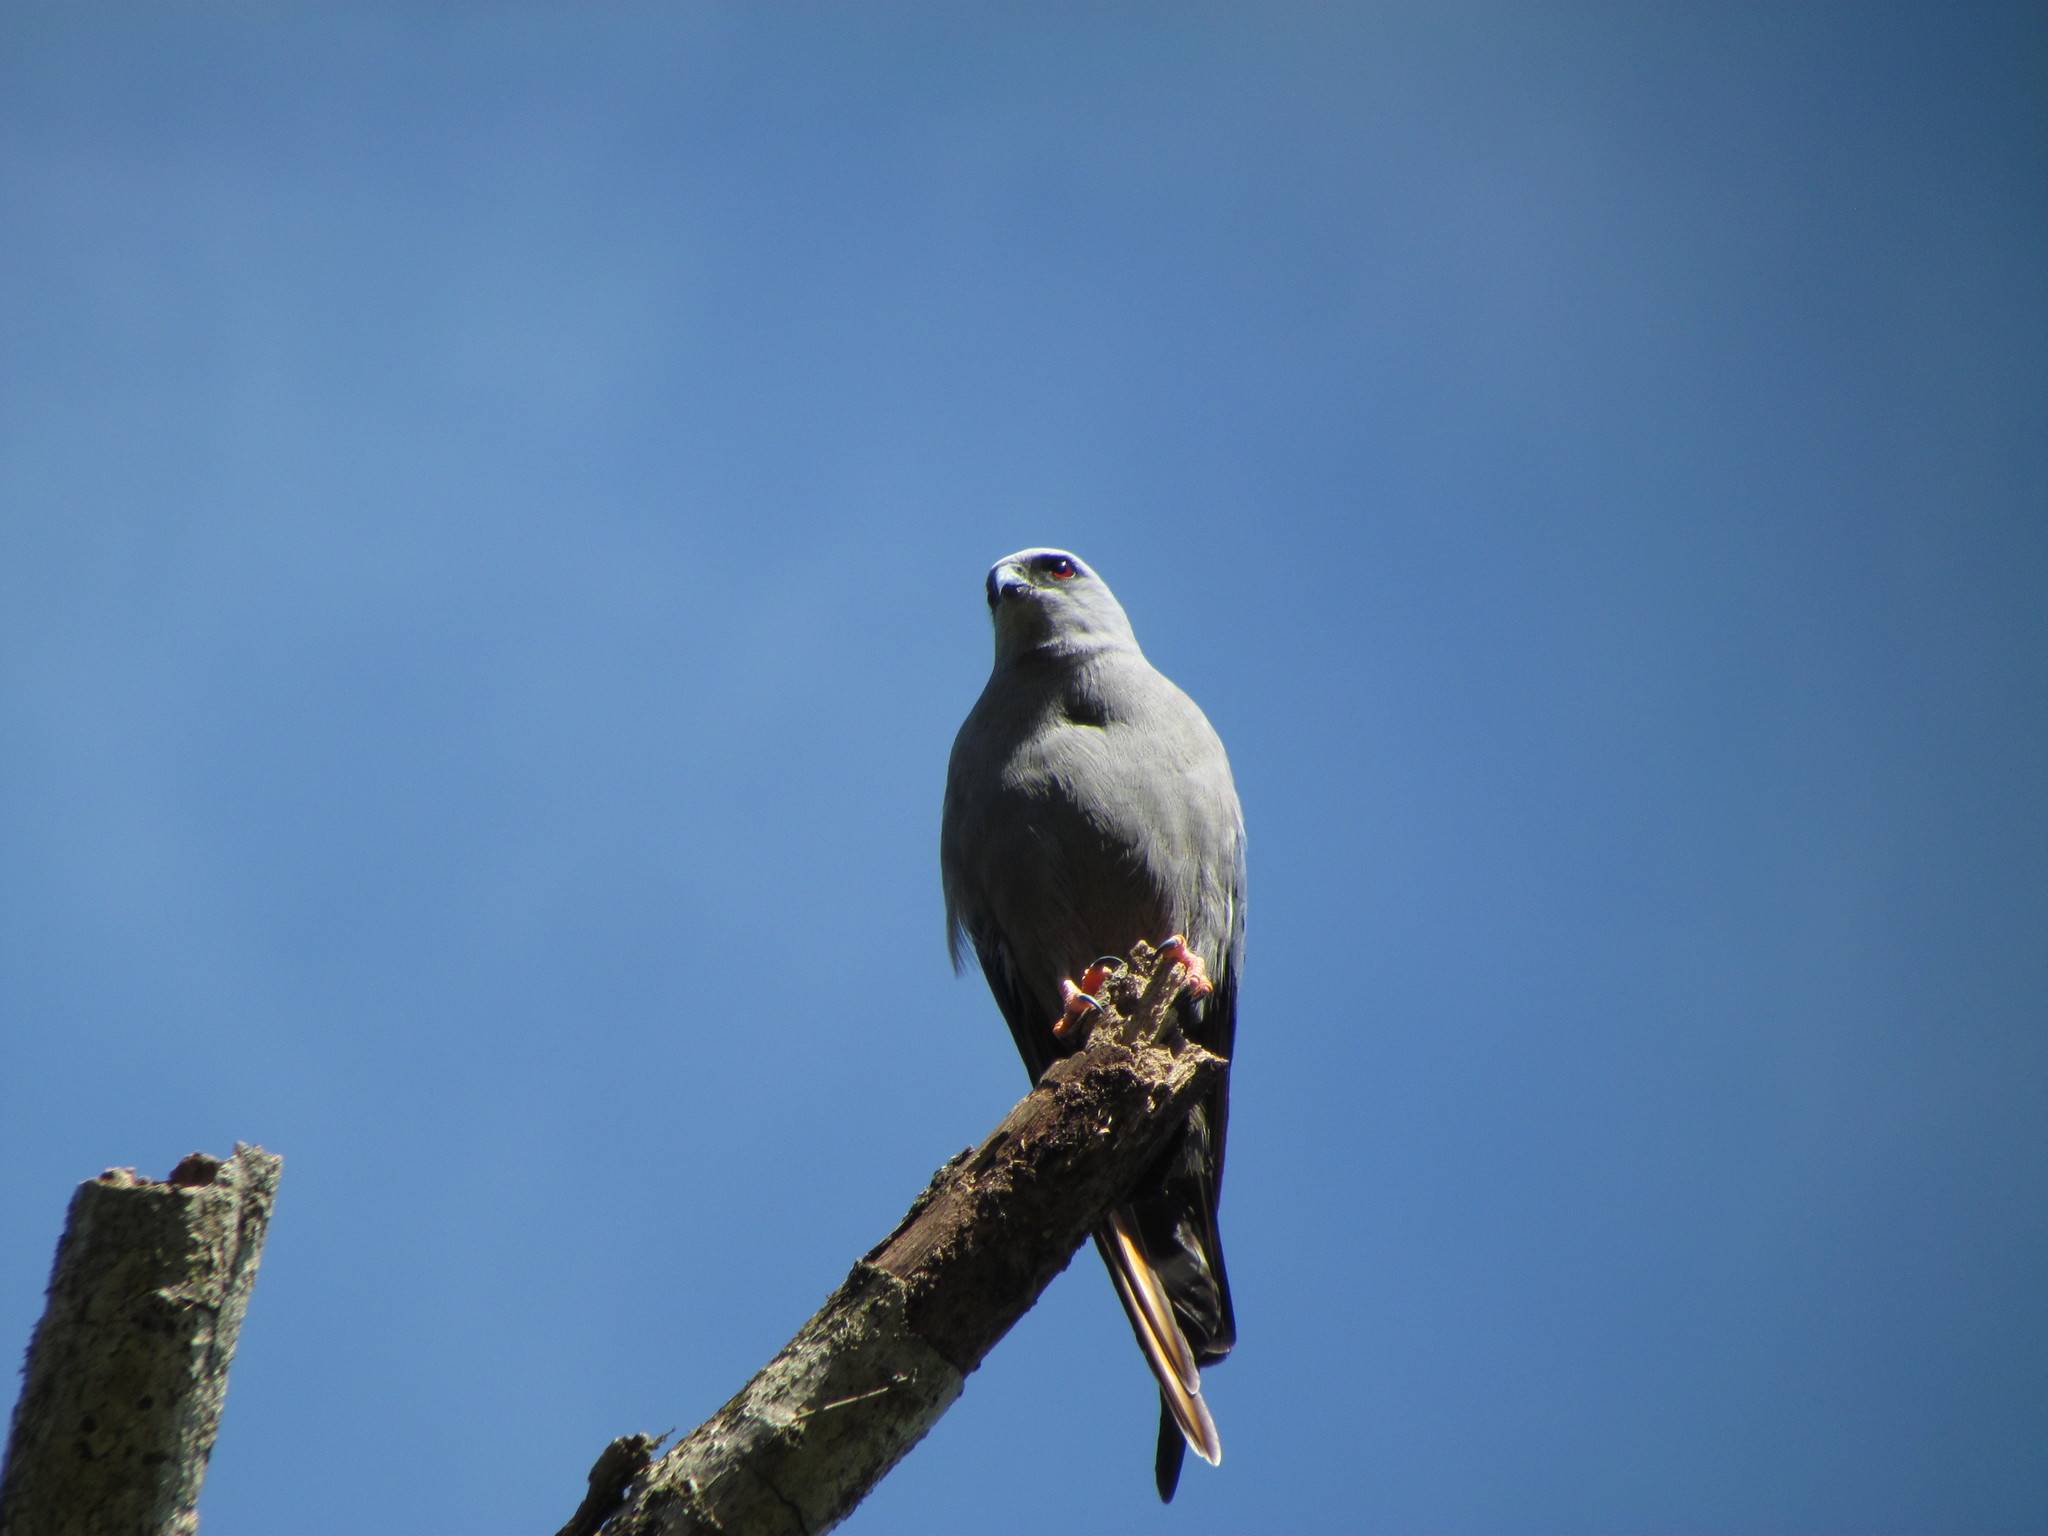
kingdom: Animalia
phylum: Chordata
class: Aves
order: Accipitriformes
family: Accipitridae
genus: Ictinia
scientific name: Ictinia plumbea
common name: Plumbeous kite
